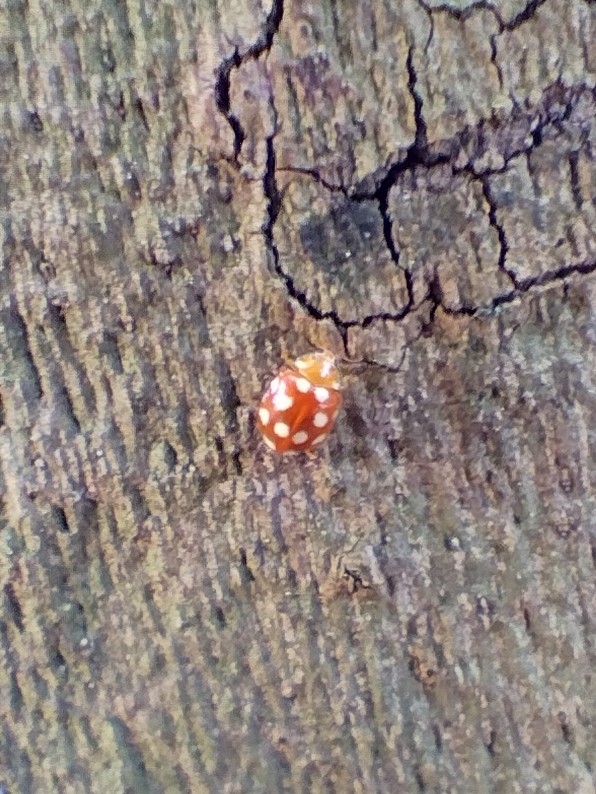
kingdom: Animalia
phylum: Arthropoda
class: Insecta
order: Coleoptera
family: Coccinellidae
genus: Vibidia
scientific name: Vibidia duodecimguttata
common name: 12-spot ladybird
